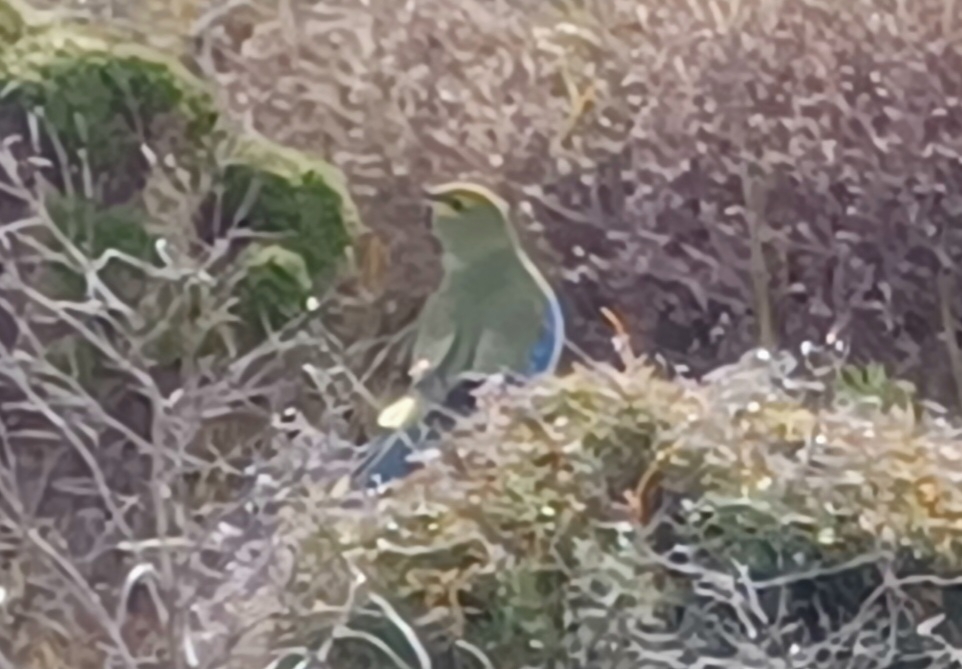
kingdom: Animalia
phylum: Chordata
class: Aves
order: Psittaciformes
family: Psittacidae
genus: Neophema
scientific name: Neophema chrysostoma
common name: Blue-winged parrot
